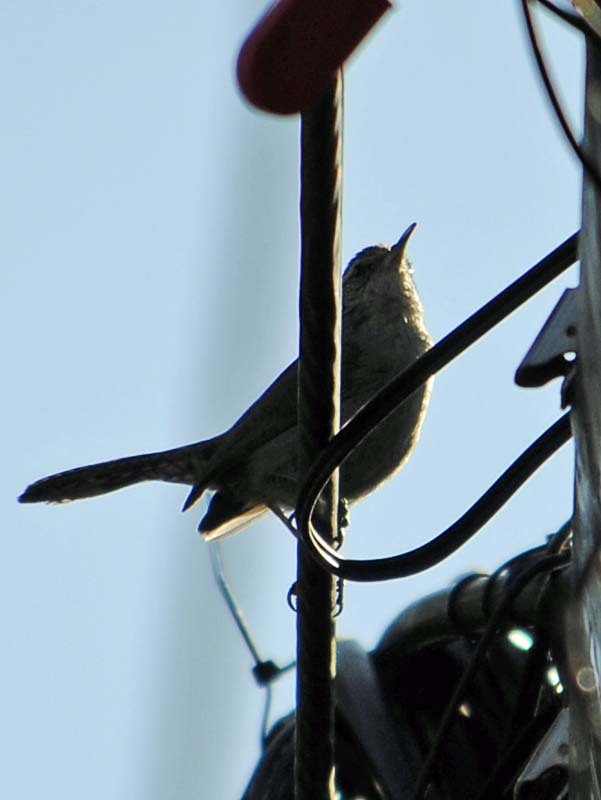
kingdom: Animalia
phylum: Chordata
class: Aves
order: Passeriformes
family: Troglodytidae
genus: Thryomanes
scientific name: Thryomanes bewickii
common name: Bewick's wren
